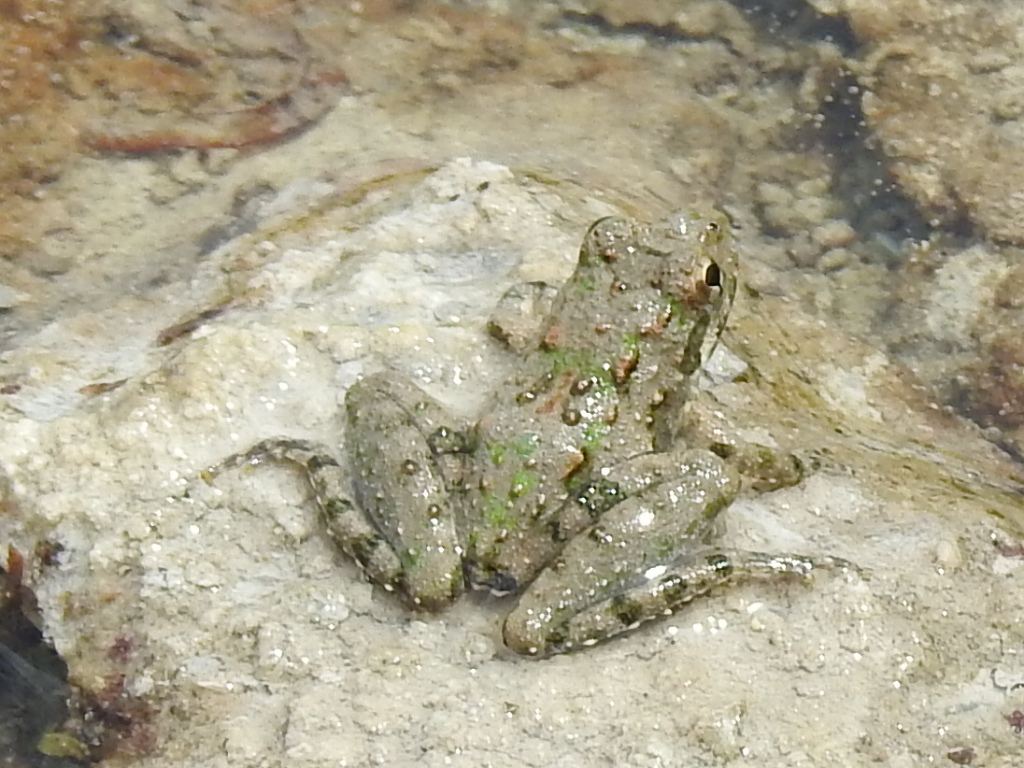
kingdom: Animalia
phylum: Chordata
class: Amphibia
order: Anura
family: Hylidae
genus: Acris
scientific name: Acris blanchardi
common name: Blanchard's cricket frog
